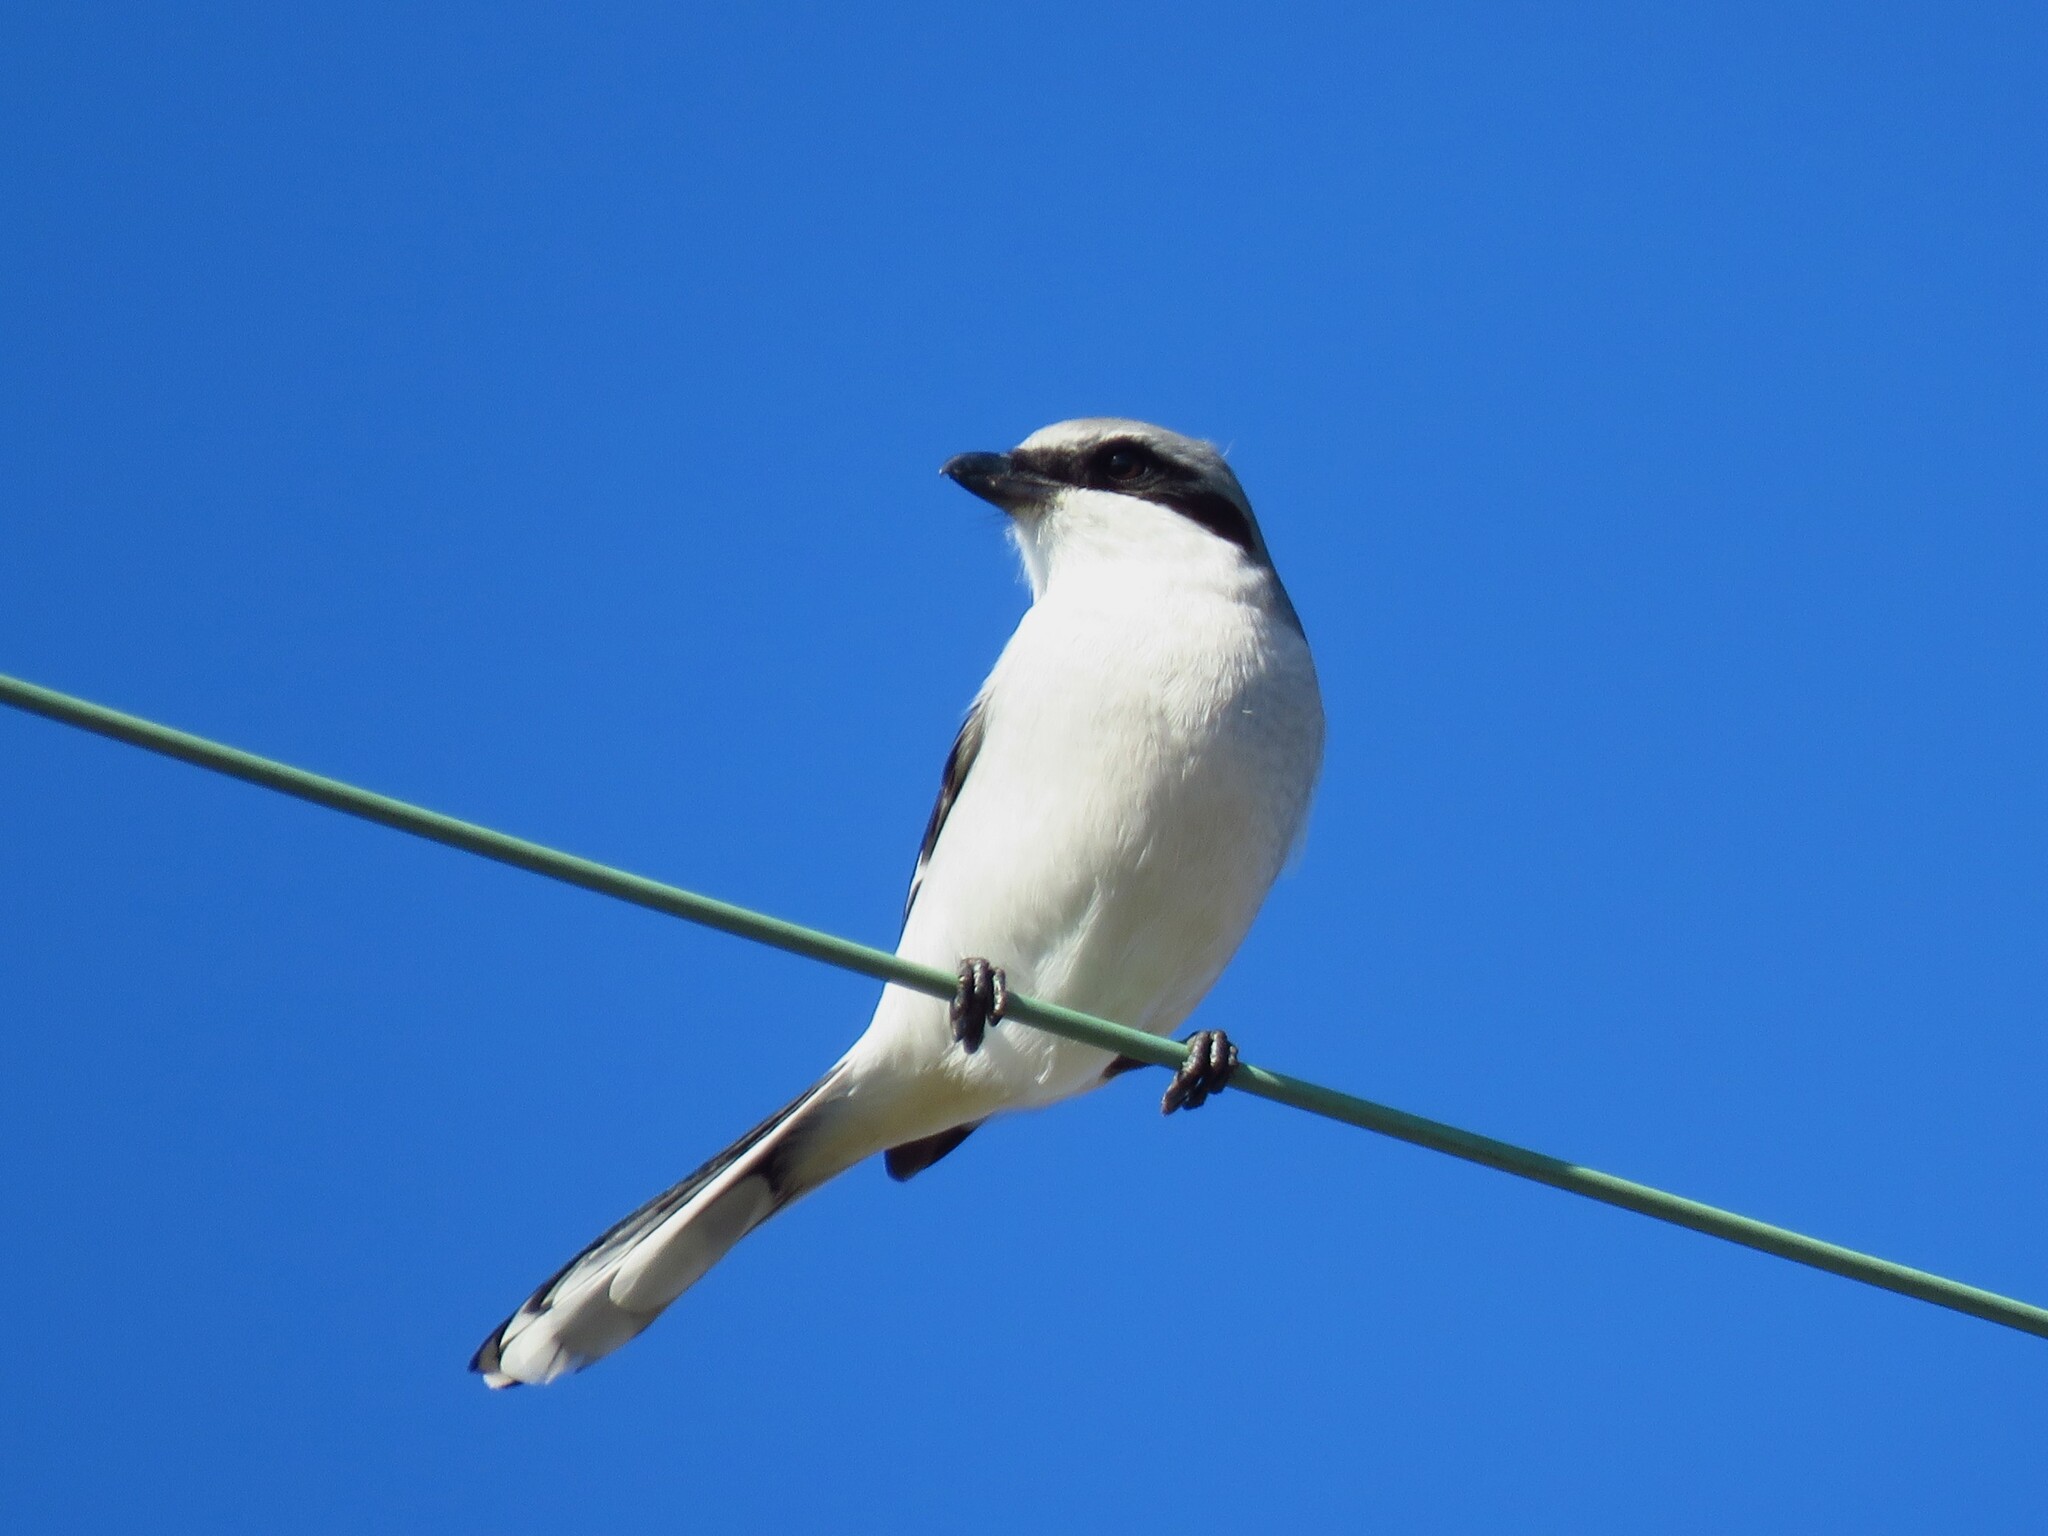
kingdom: Animalia
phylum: Chordata
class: Aves
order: Passeriformes
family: Laniidae
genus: Lanius
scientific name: Lanius ludovicianus
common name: Loggerhead shrike
